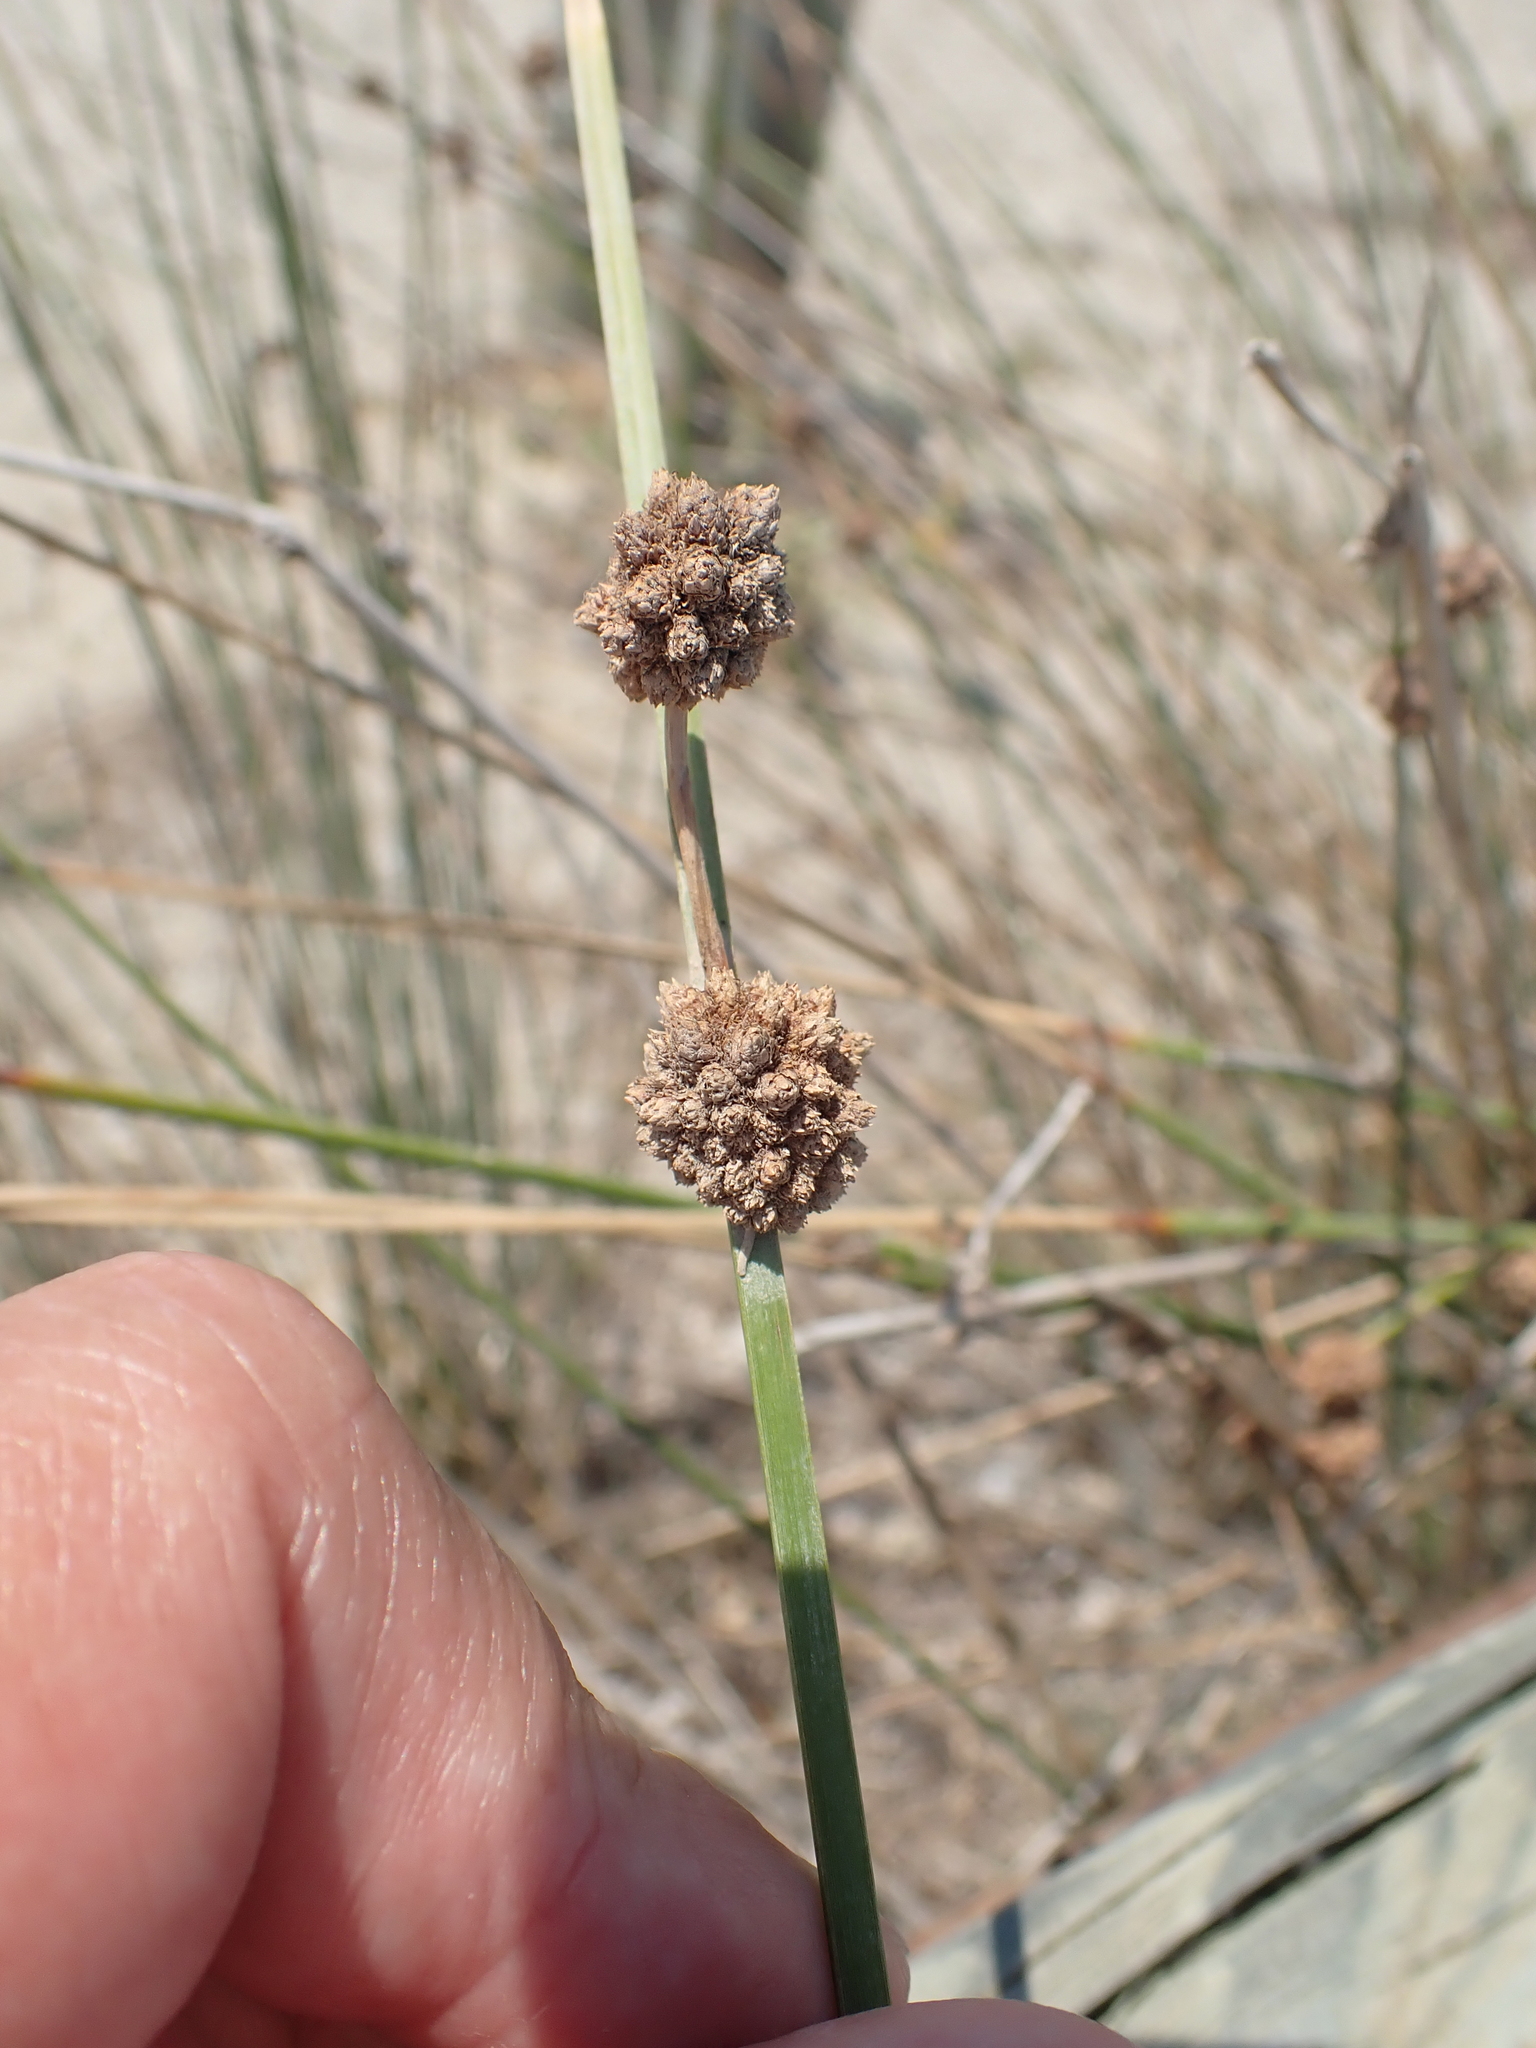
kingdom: Plantae
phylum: Tracheophyta
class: Liliopsida
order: Poales
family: Cyperaceae
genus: Scirpoides
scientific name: Scirpoides holoschoenus
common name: Round-headed club-rush
